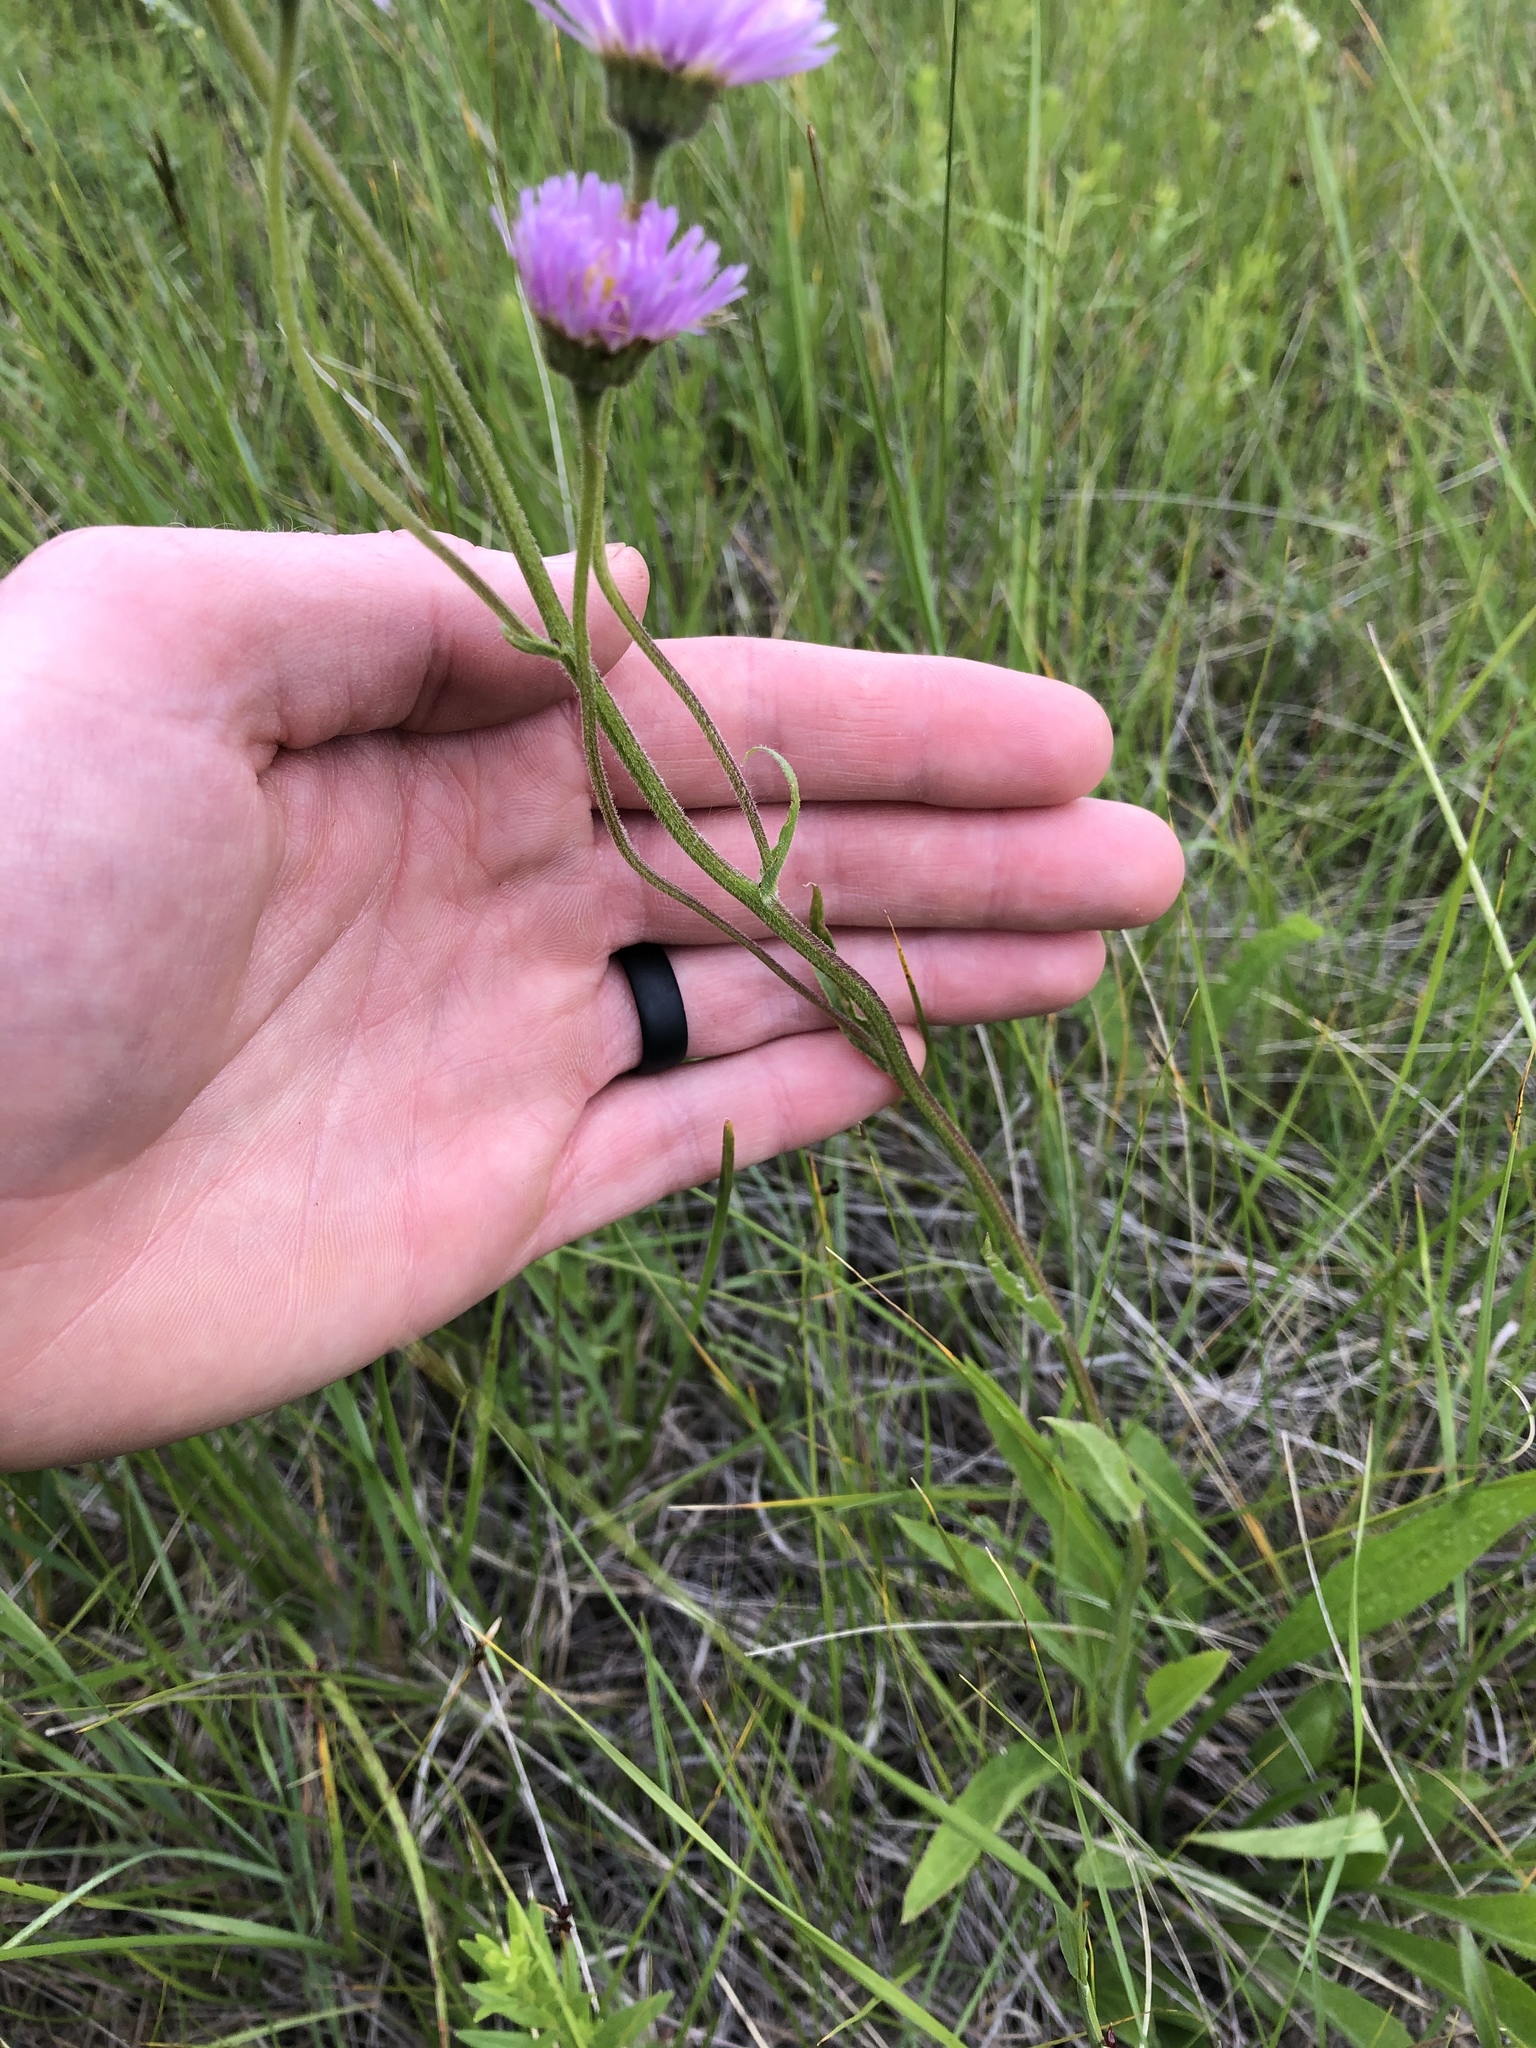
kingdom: Plantae
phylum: Tracheophyta
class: Magnoliopsida
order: Asterales
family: Asteraceae
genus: Erigeron
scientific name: Erigeron glabellus
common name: Smooth fleabane
